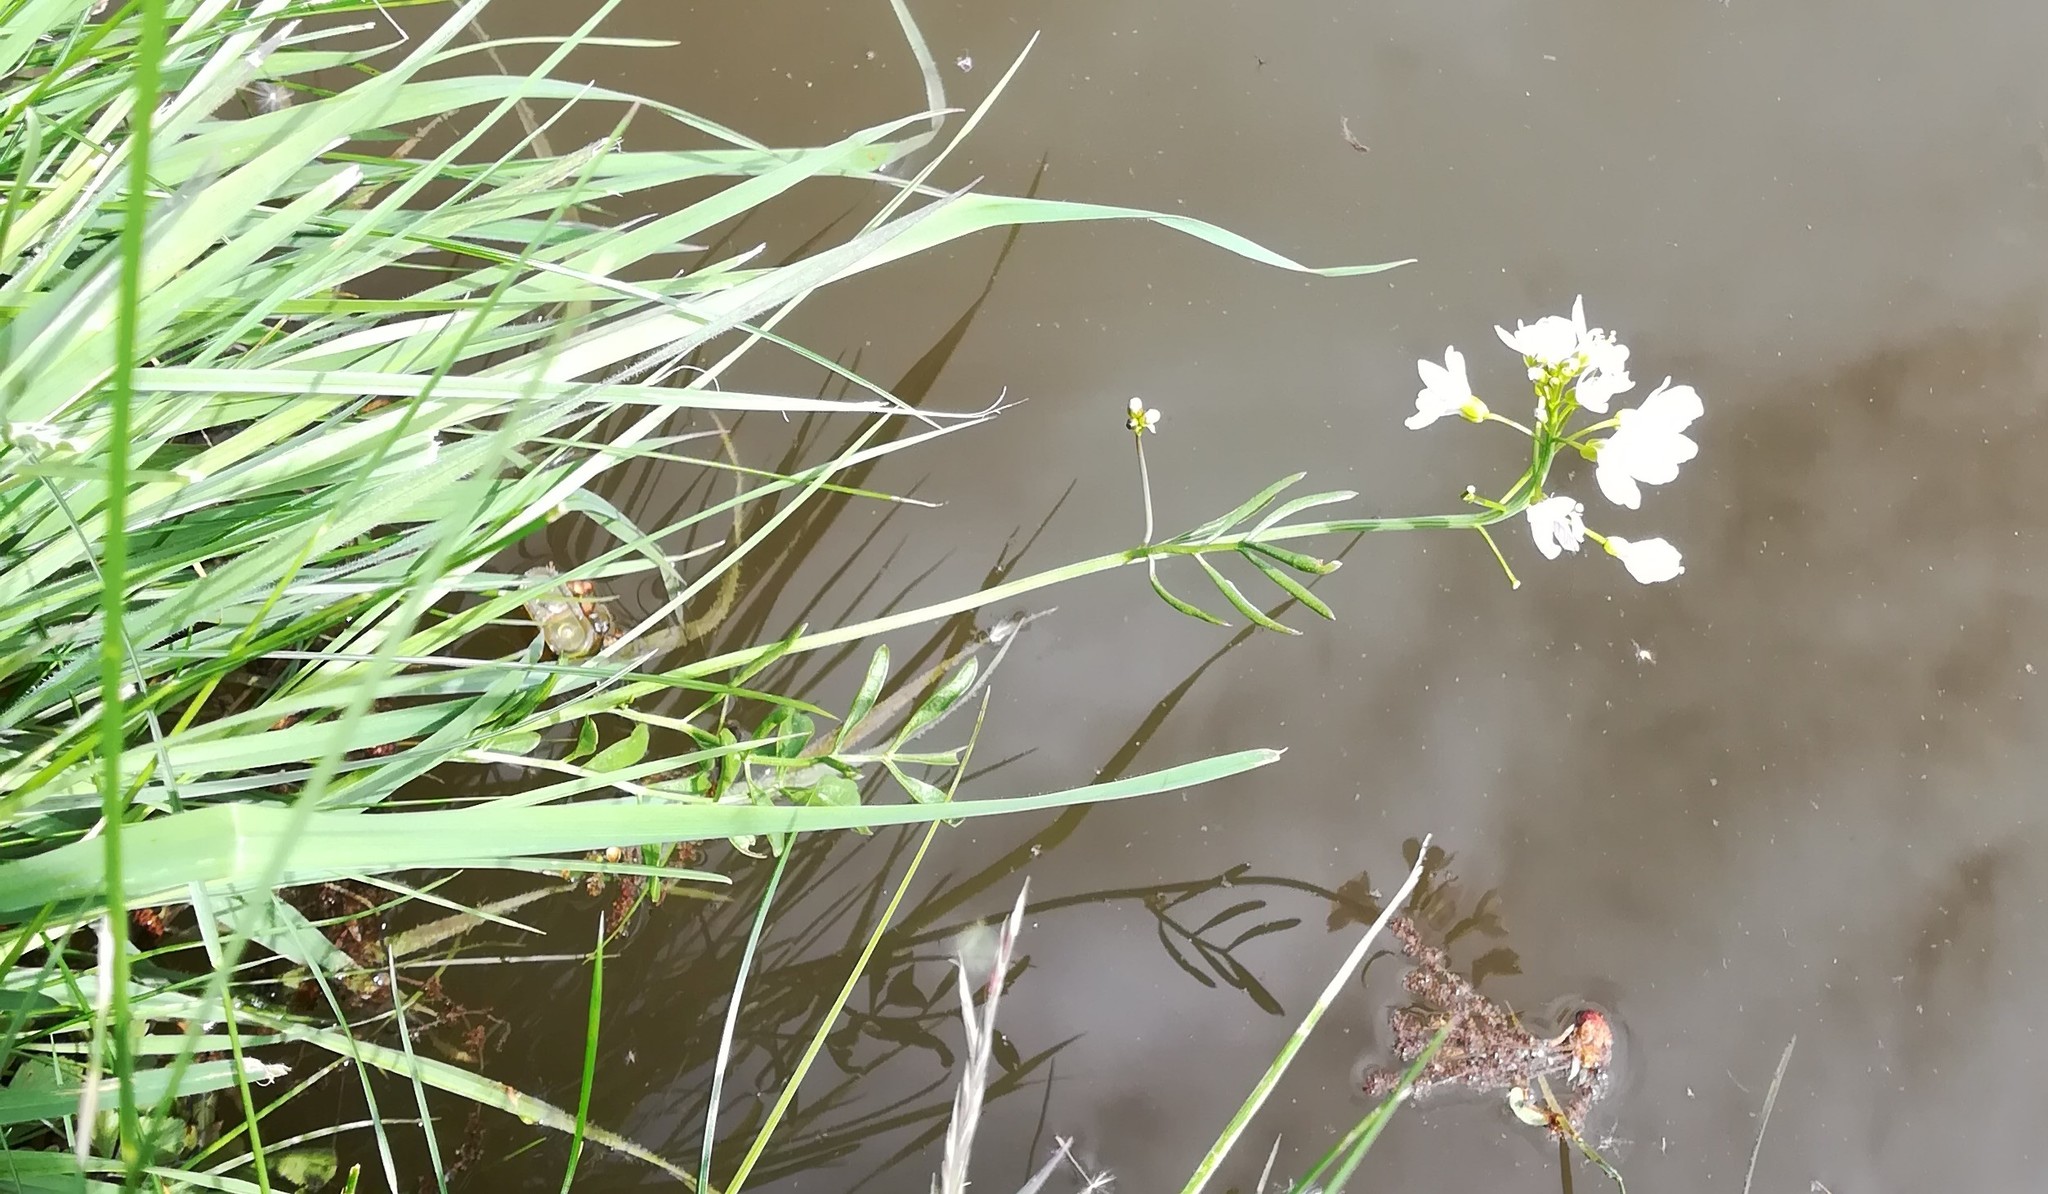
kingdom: Plantae
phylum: Tracheophyta
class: Magnoliopsida
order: Brassicales
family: Brassicaceae
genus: Cardamine
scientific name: Cardamine pratensis
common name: Cuckoo flower
